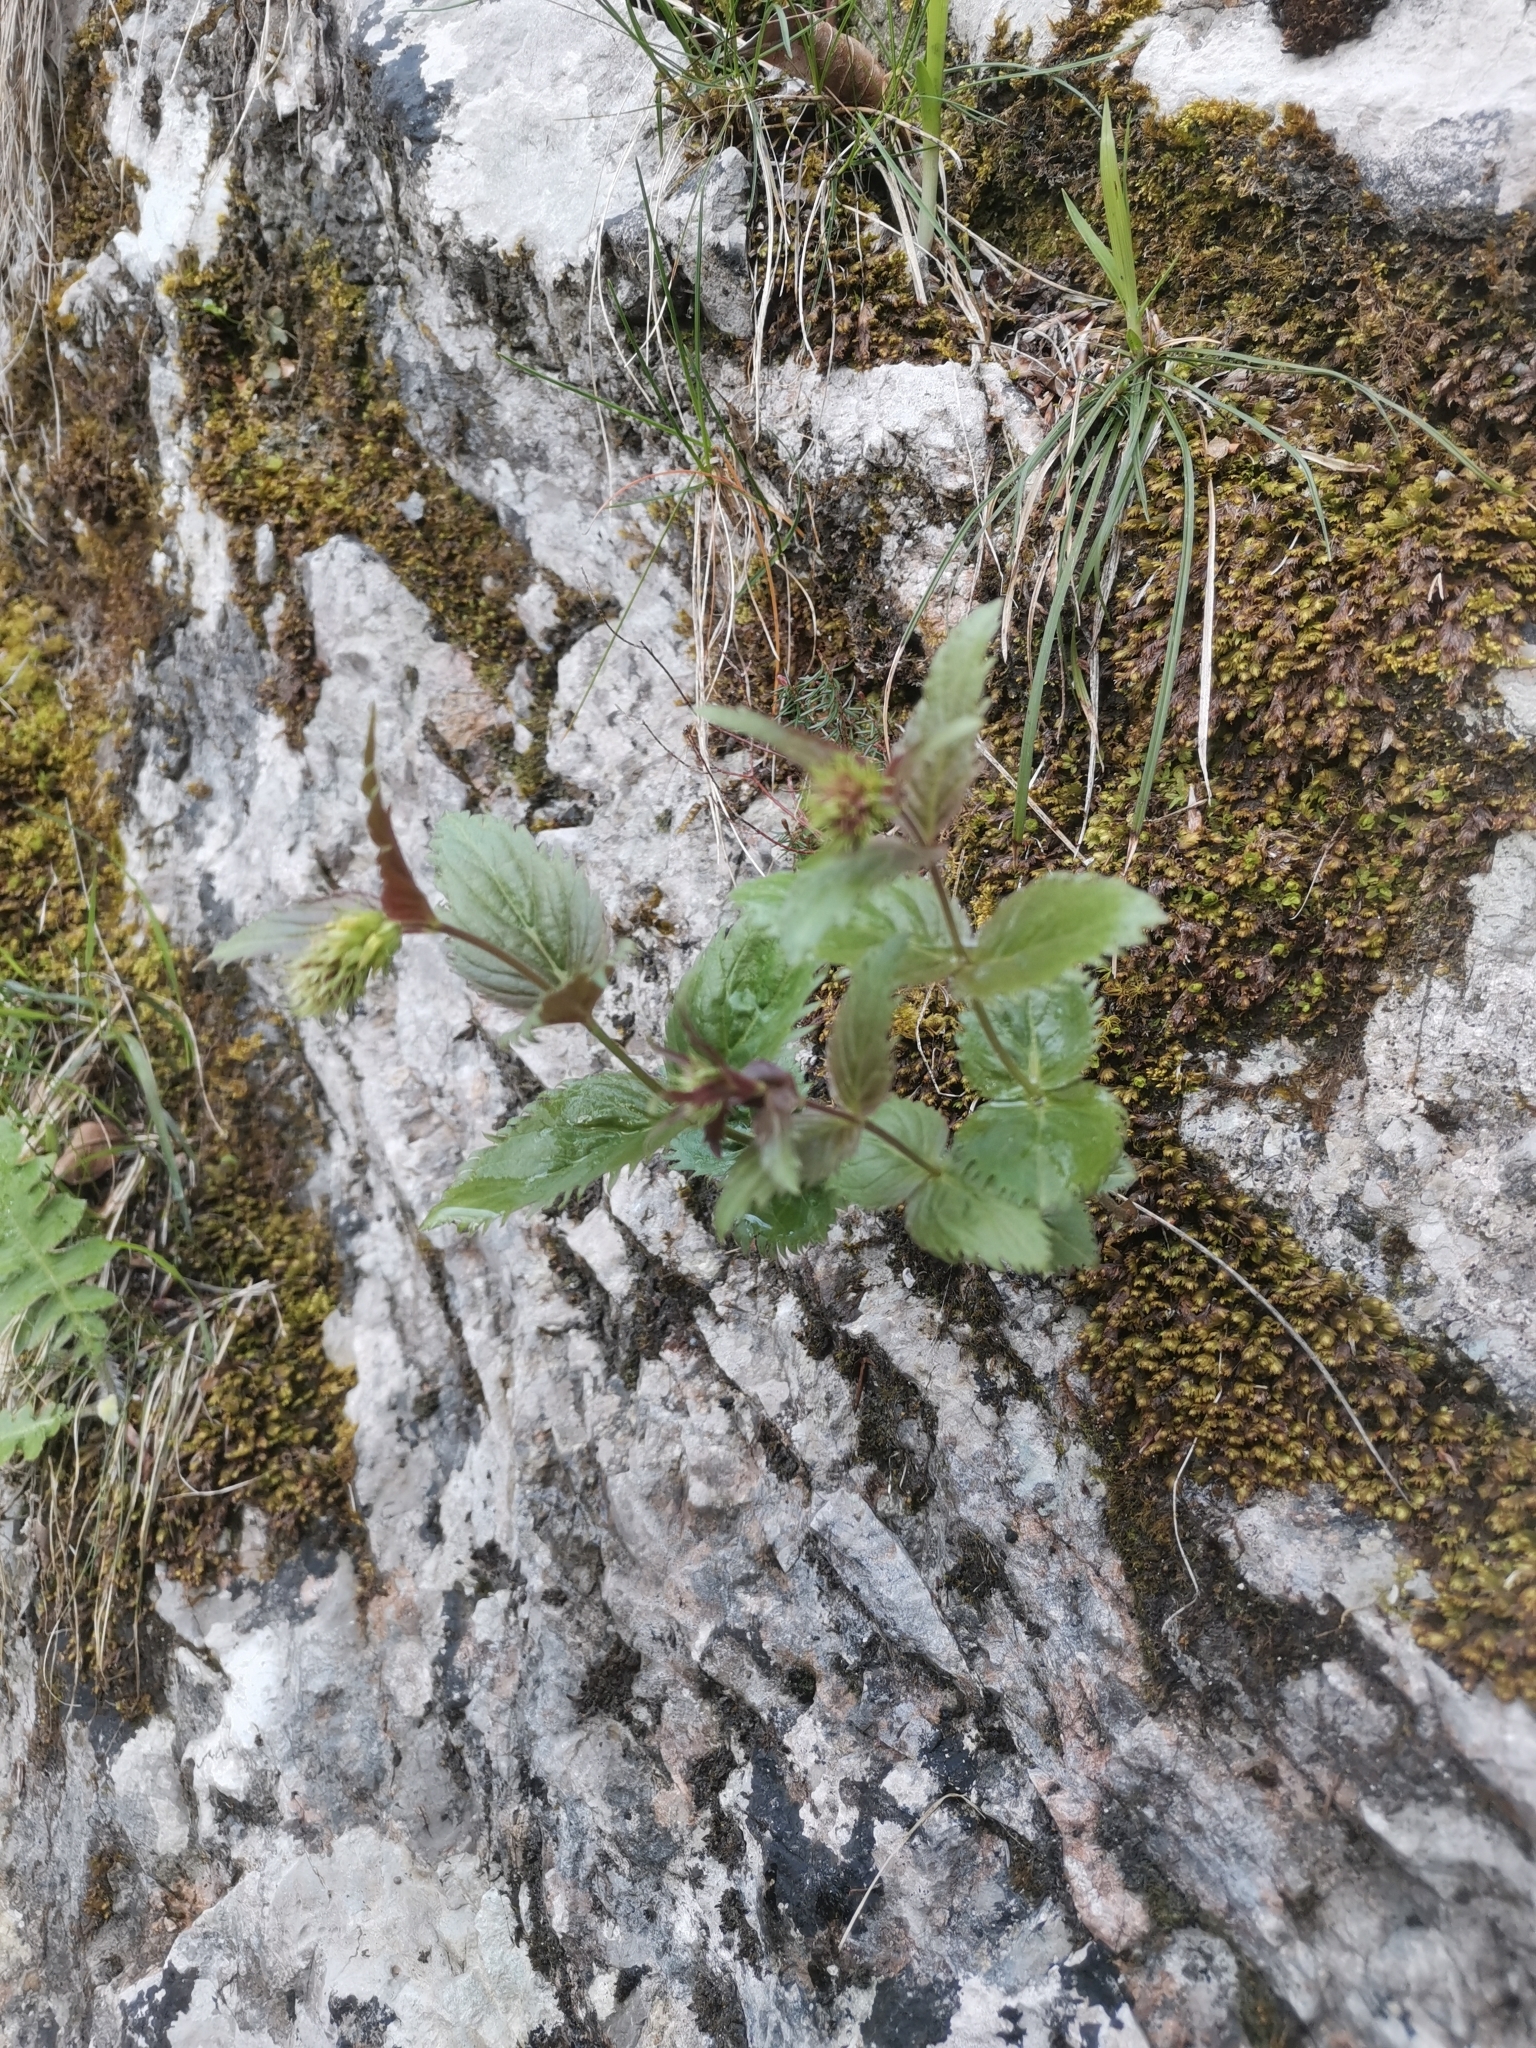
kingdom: Plantae
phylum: Tracheophyta
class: Magnoliopsida
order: Lamiales
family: Plantaginaceae
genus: Paederota
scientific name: Paederota lutea
